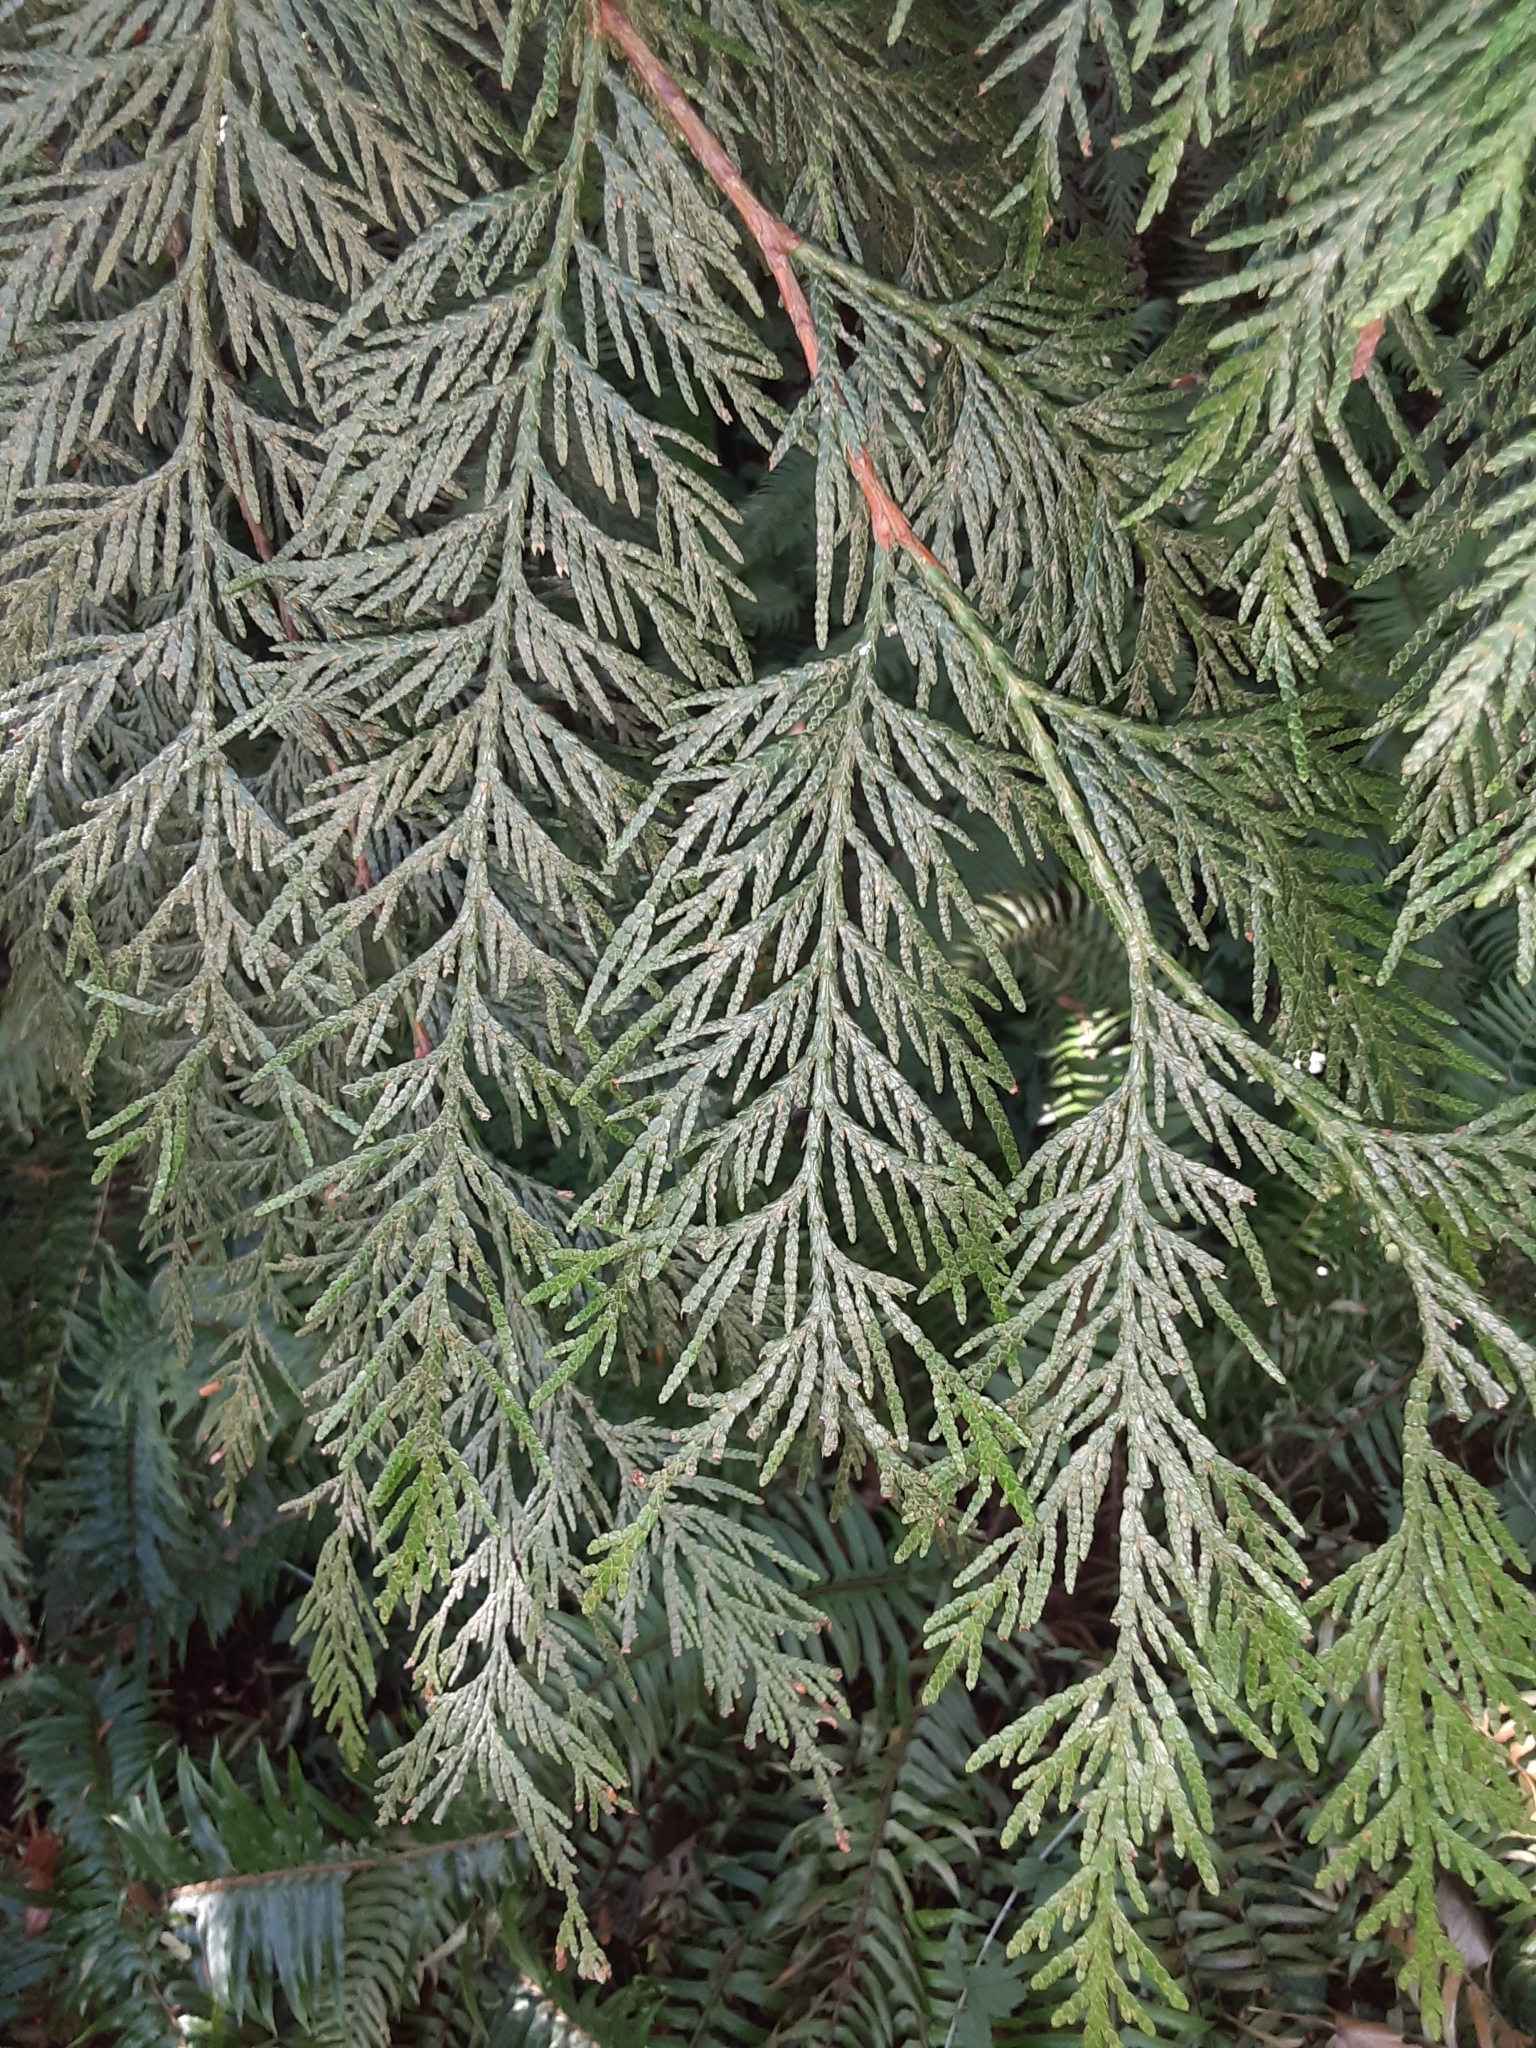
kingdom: Plantae
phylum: Tracheophyta
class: Pinopsida
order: Pinales
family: Cupressaceae
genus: Thuja
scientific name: Thuja plicata
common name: Western red-cedar
